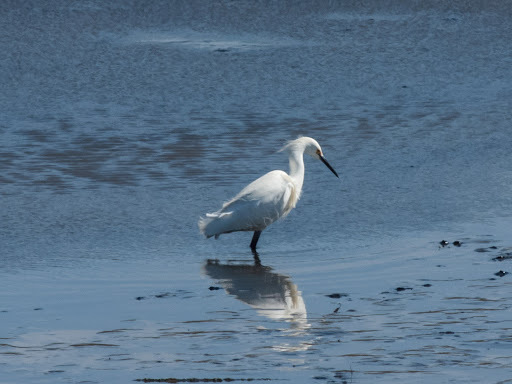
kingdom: Animalia
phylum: Chordata
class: Aves
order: Pelecaniformes
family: Ardeidae
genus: Egretta
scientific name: Egretta thula
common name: Snowy egret
